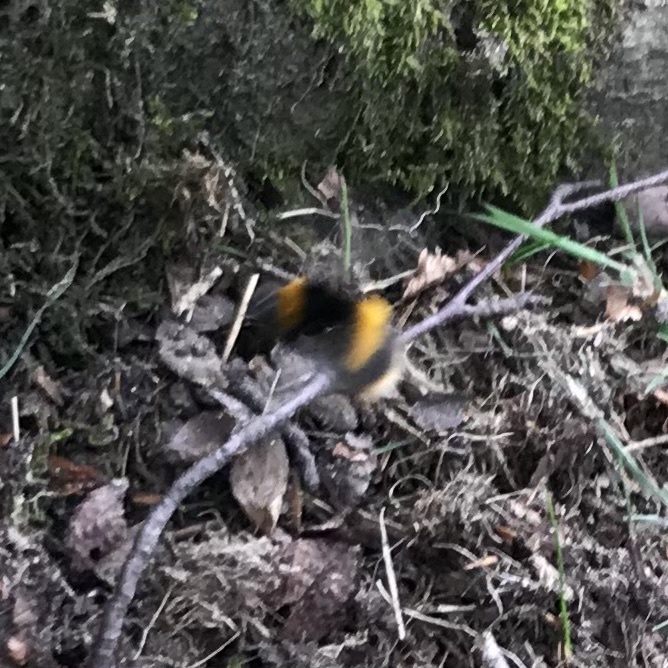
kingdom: Animalia
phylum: Arthropoda
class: Insecta
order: Hymenoptera
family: Apidae
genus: Bombus
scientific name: Bombus terrestris
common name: Buff-tailed bumblebee
